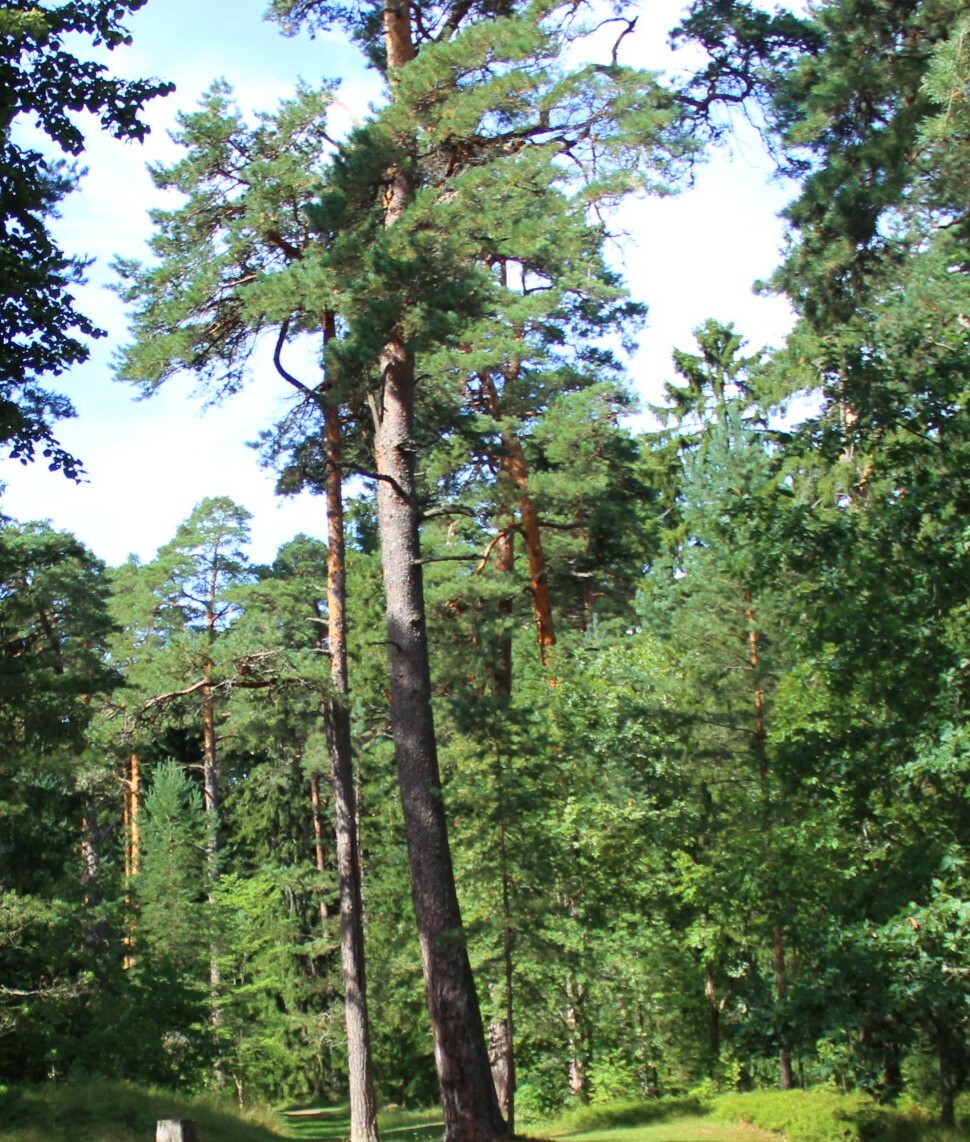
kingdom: Plantae
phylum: Tracheophyta
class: Pinopsida
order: Pinales
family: Pinaceae
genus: Pinus
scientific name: Pinus sylvestris
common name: Scots pine
